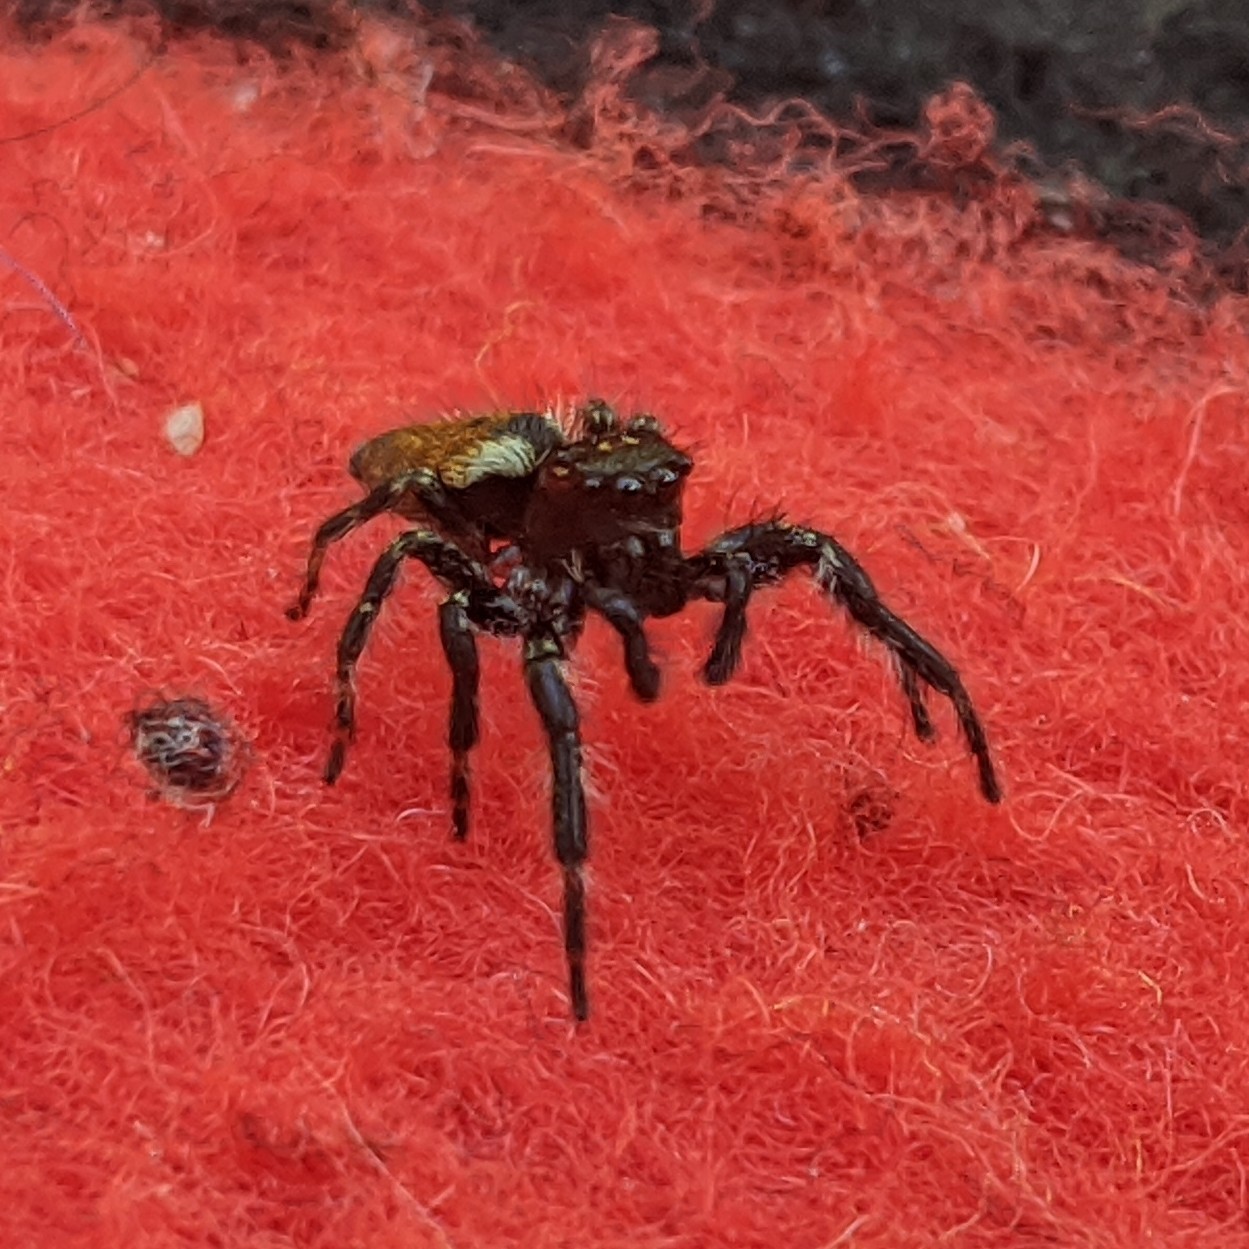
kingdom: Animalia
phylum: Arthropoda
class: Arachnida
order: Araneae
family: Salticidae
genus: Carrhotus
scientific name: Carrhotus xanthogramma
